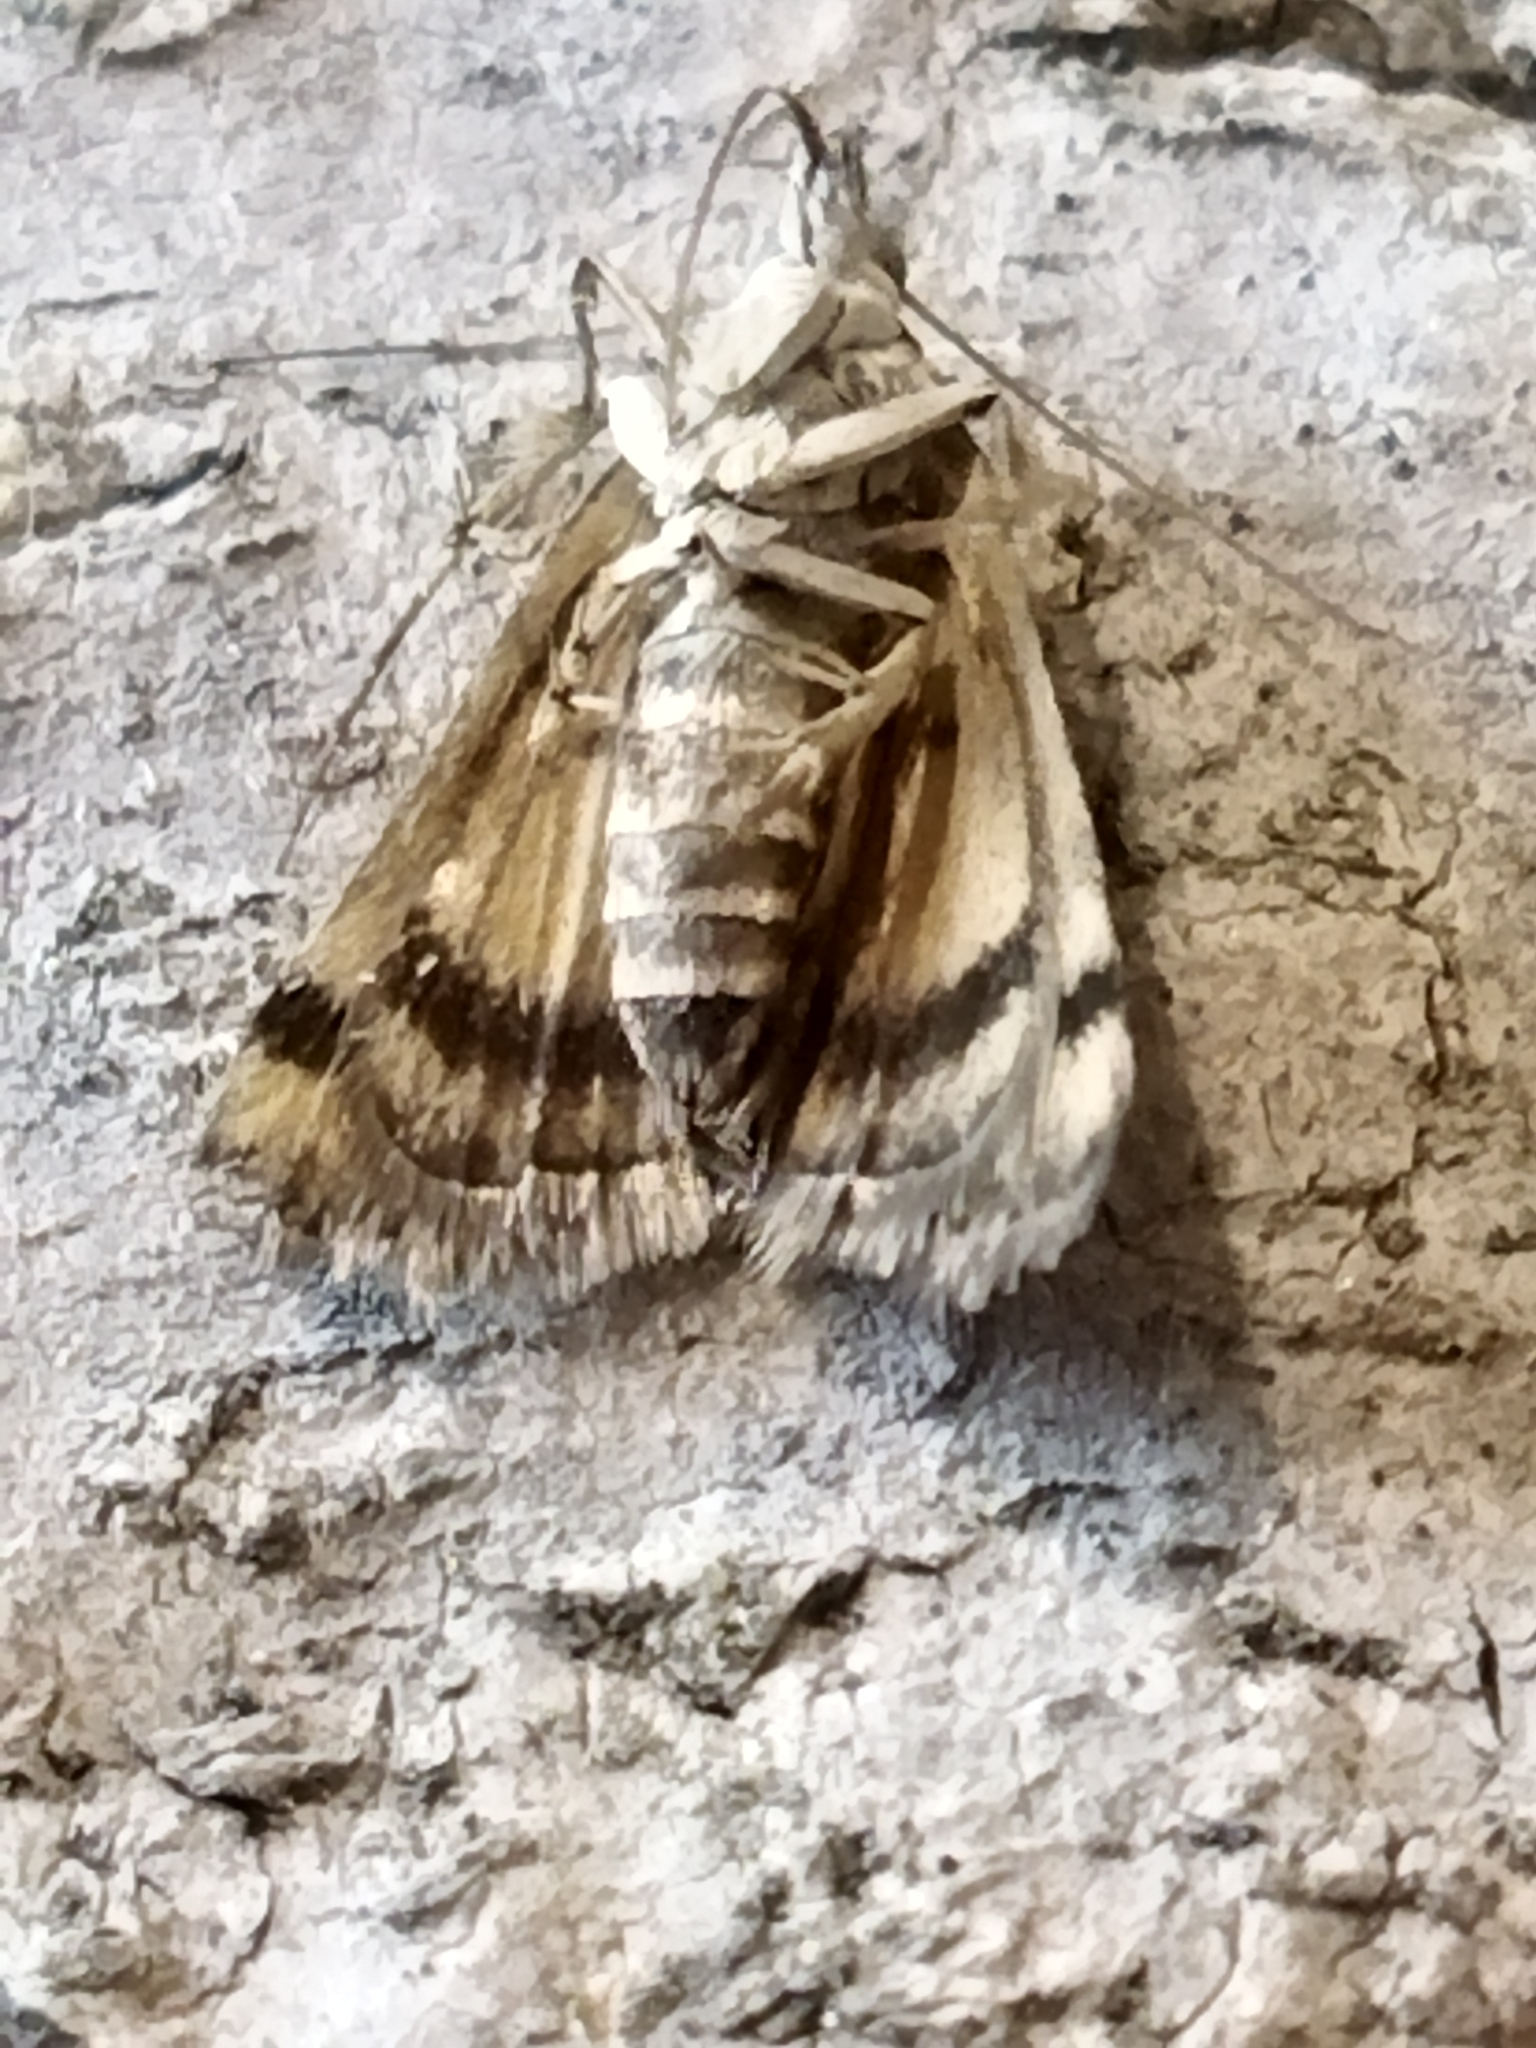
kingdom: Animalia
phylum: Arthropoda
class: Insecta
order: Lepidoptera
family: Crambidae
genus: Noctuelia
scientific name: Noctuelia Aporodes floralis
